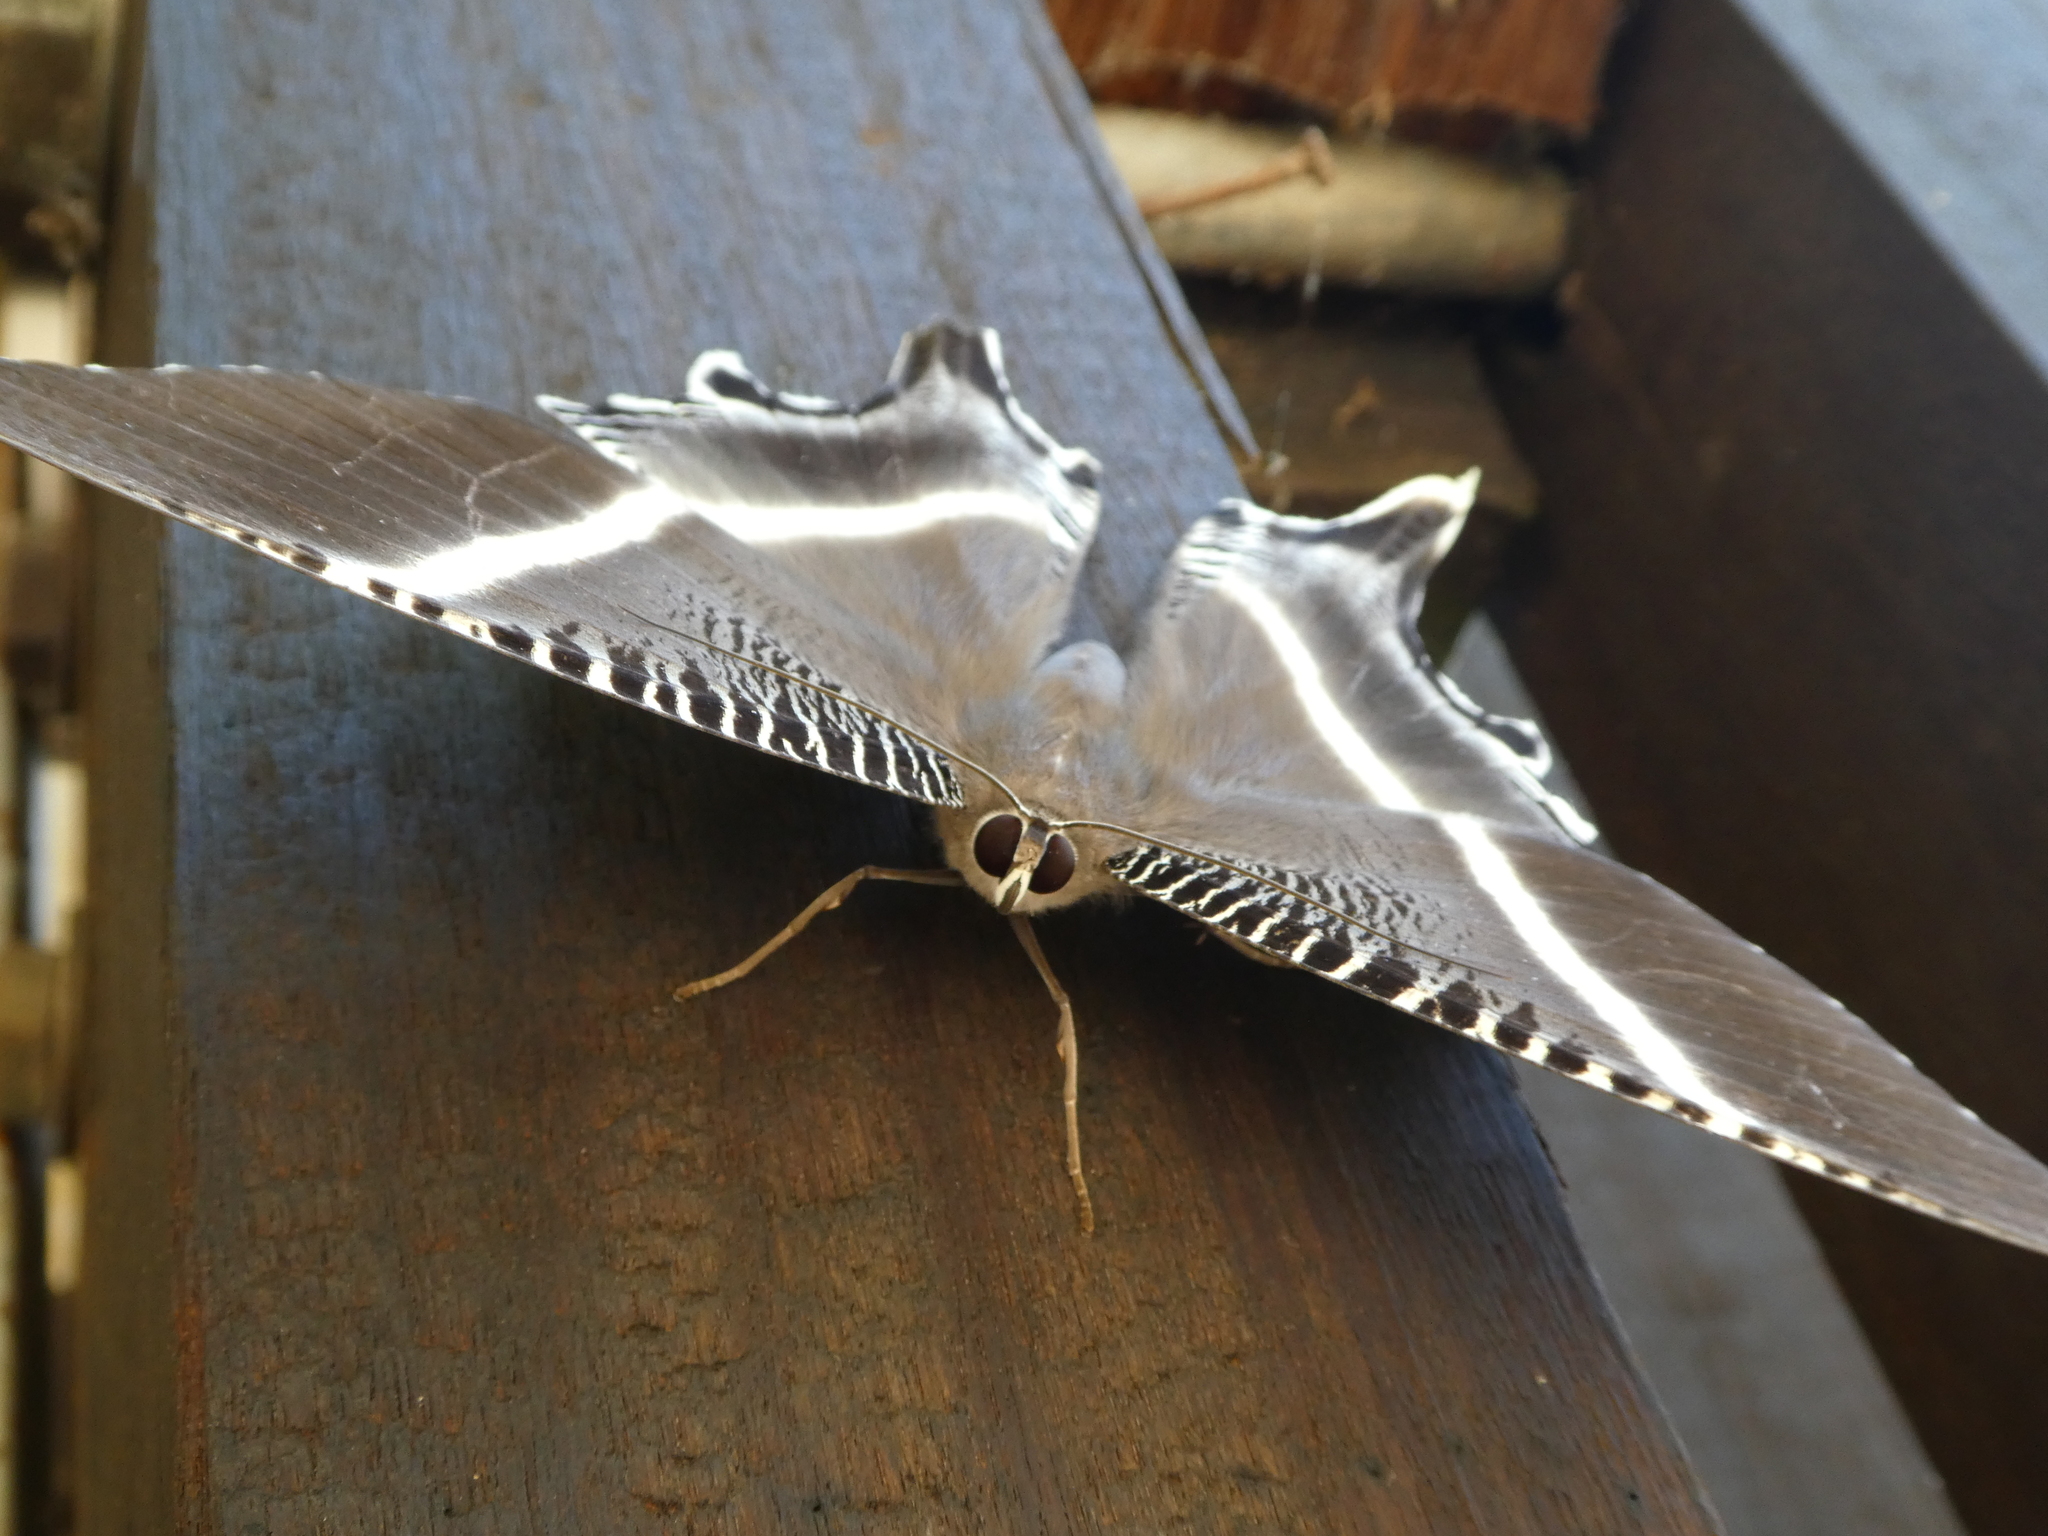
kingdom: Animalia
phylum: Arthropoda
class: Insecta
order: Lepidoptera
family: Uraniidae
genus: Lyssa
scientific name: Lyssa menoetius
